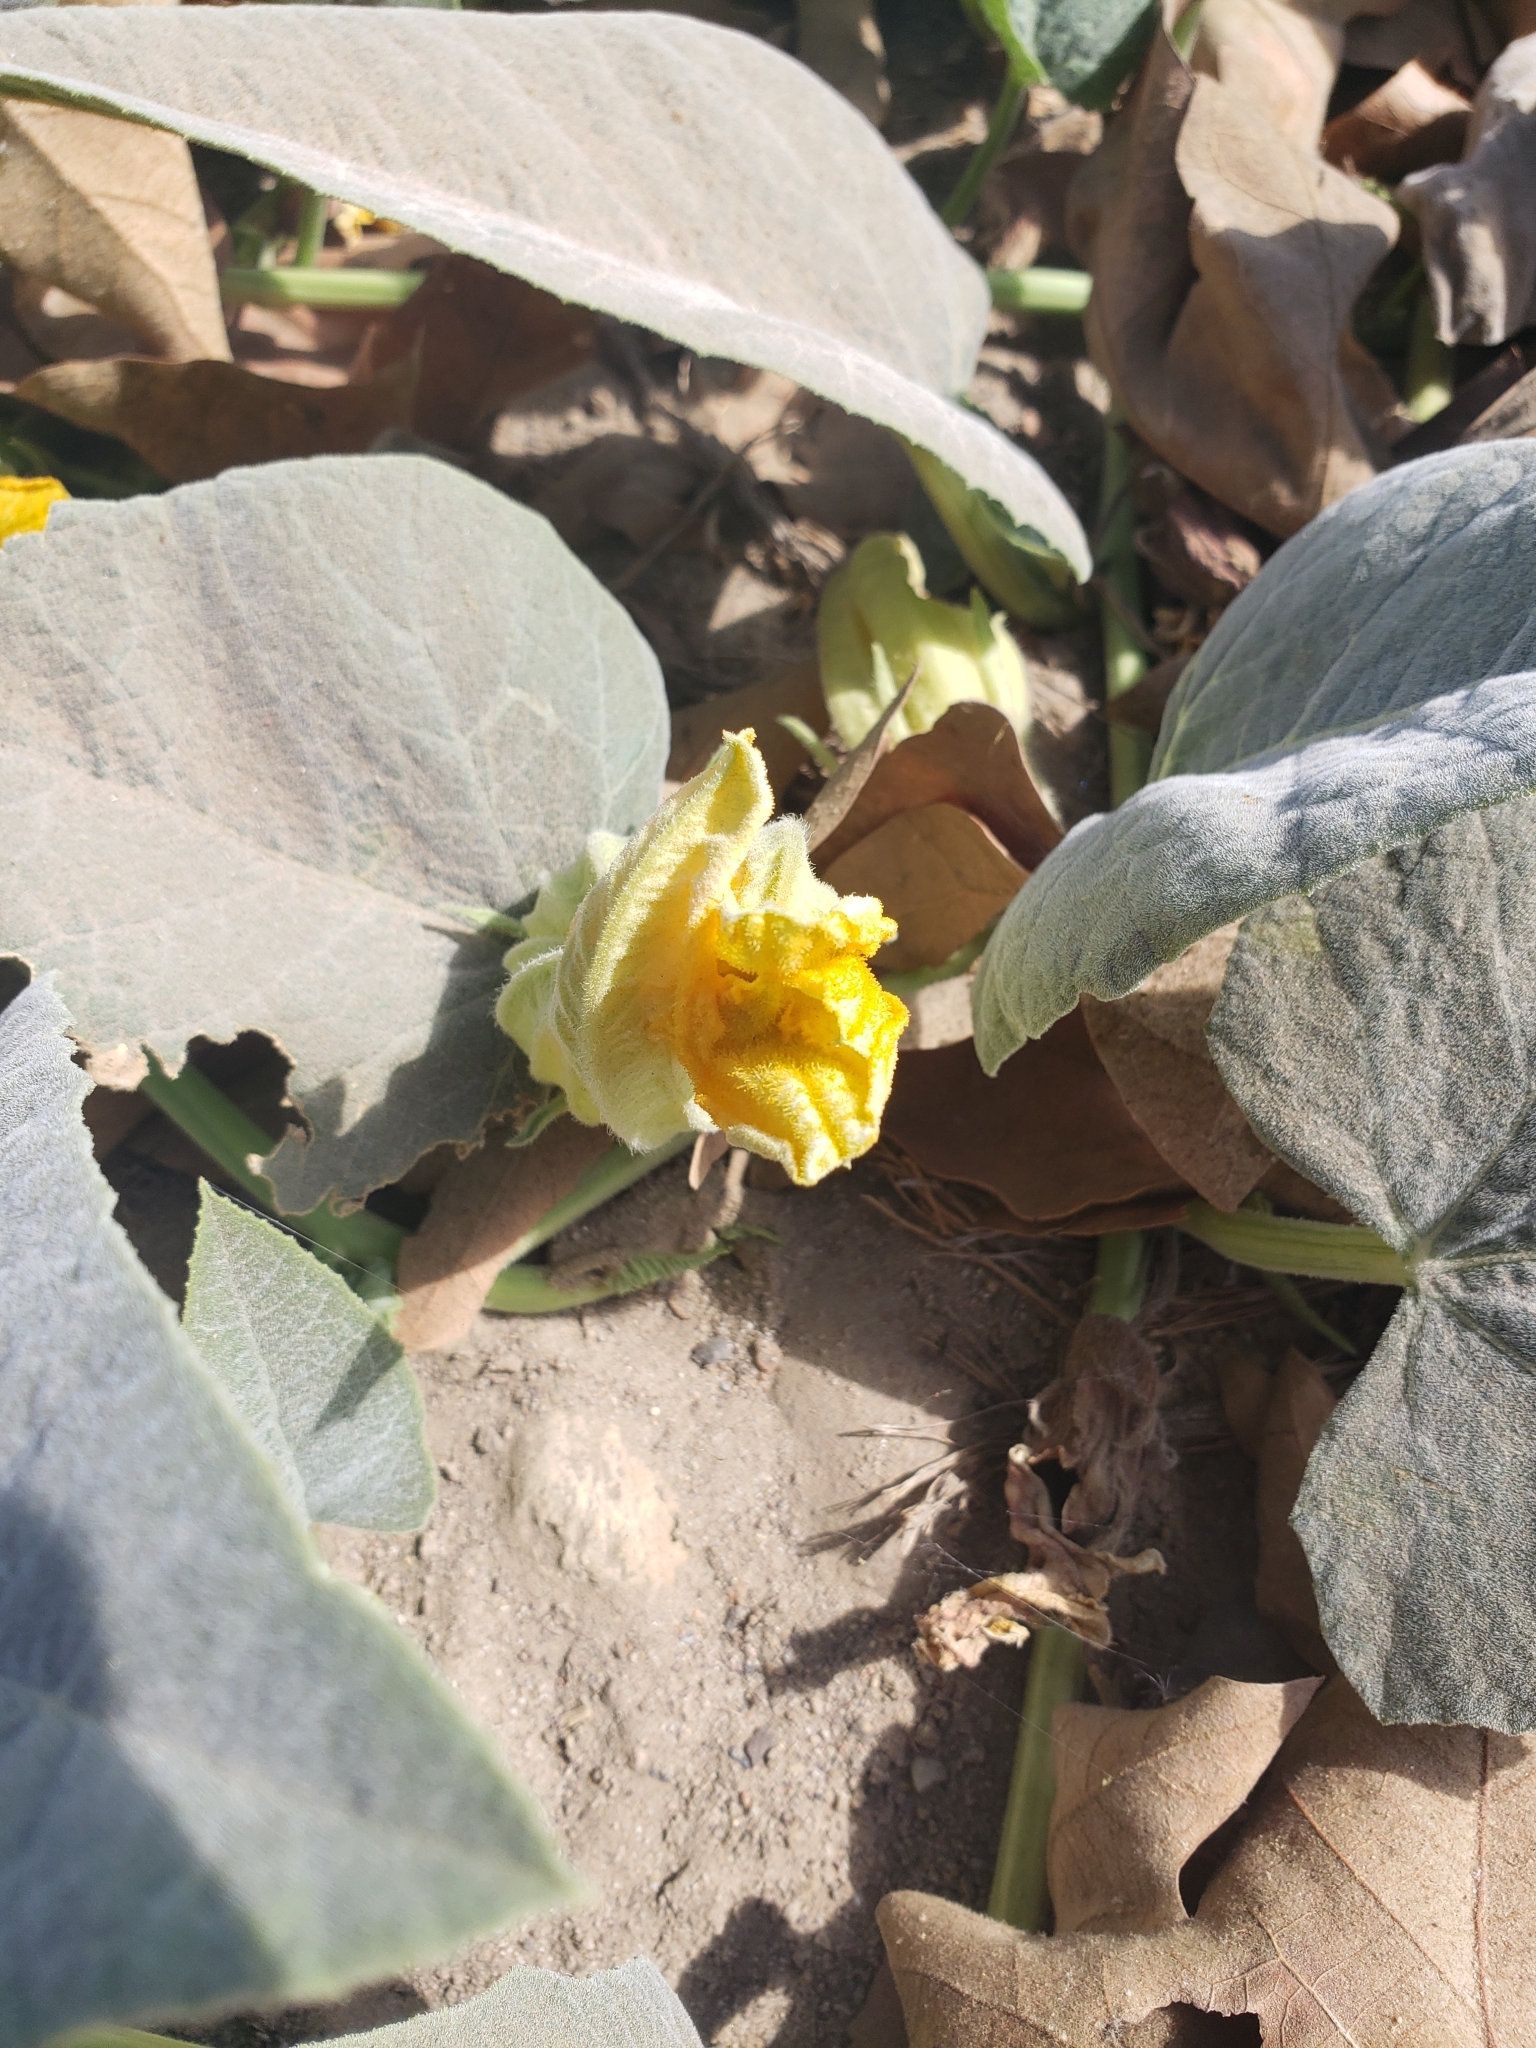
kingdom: Plantae
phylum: Tracheophyta
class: Magnoliopsida
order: Cucurbitales
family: Cucurbitaceae
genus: Cucurbita
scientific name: Cucurbita foetidissima
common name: Buffalo gourd
